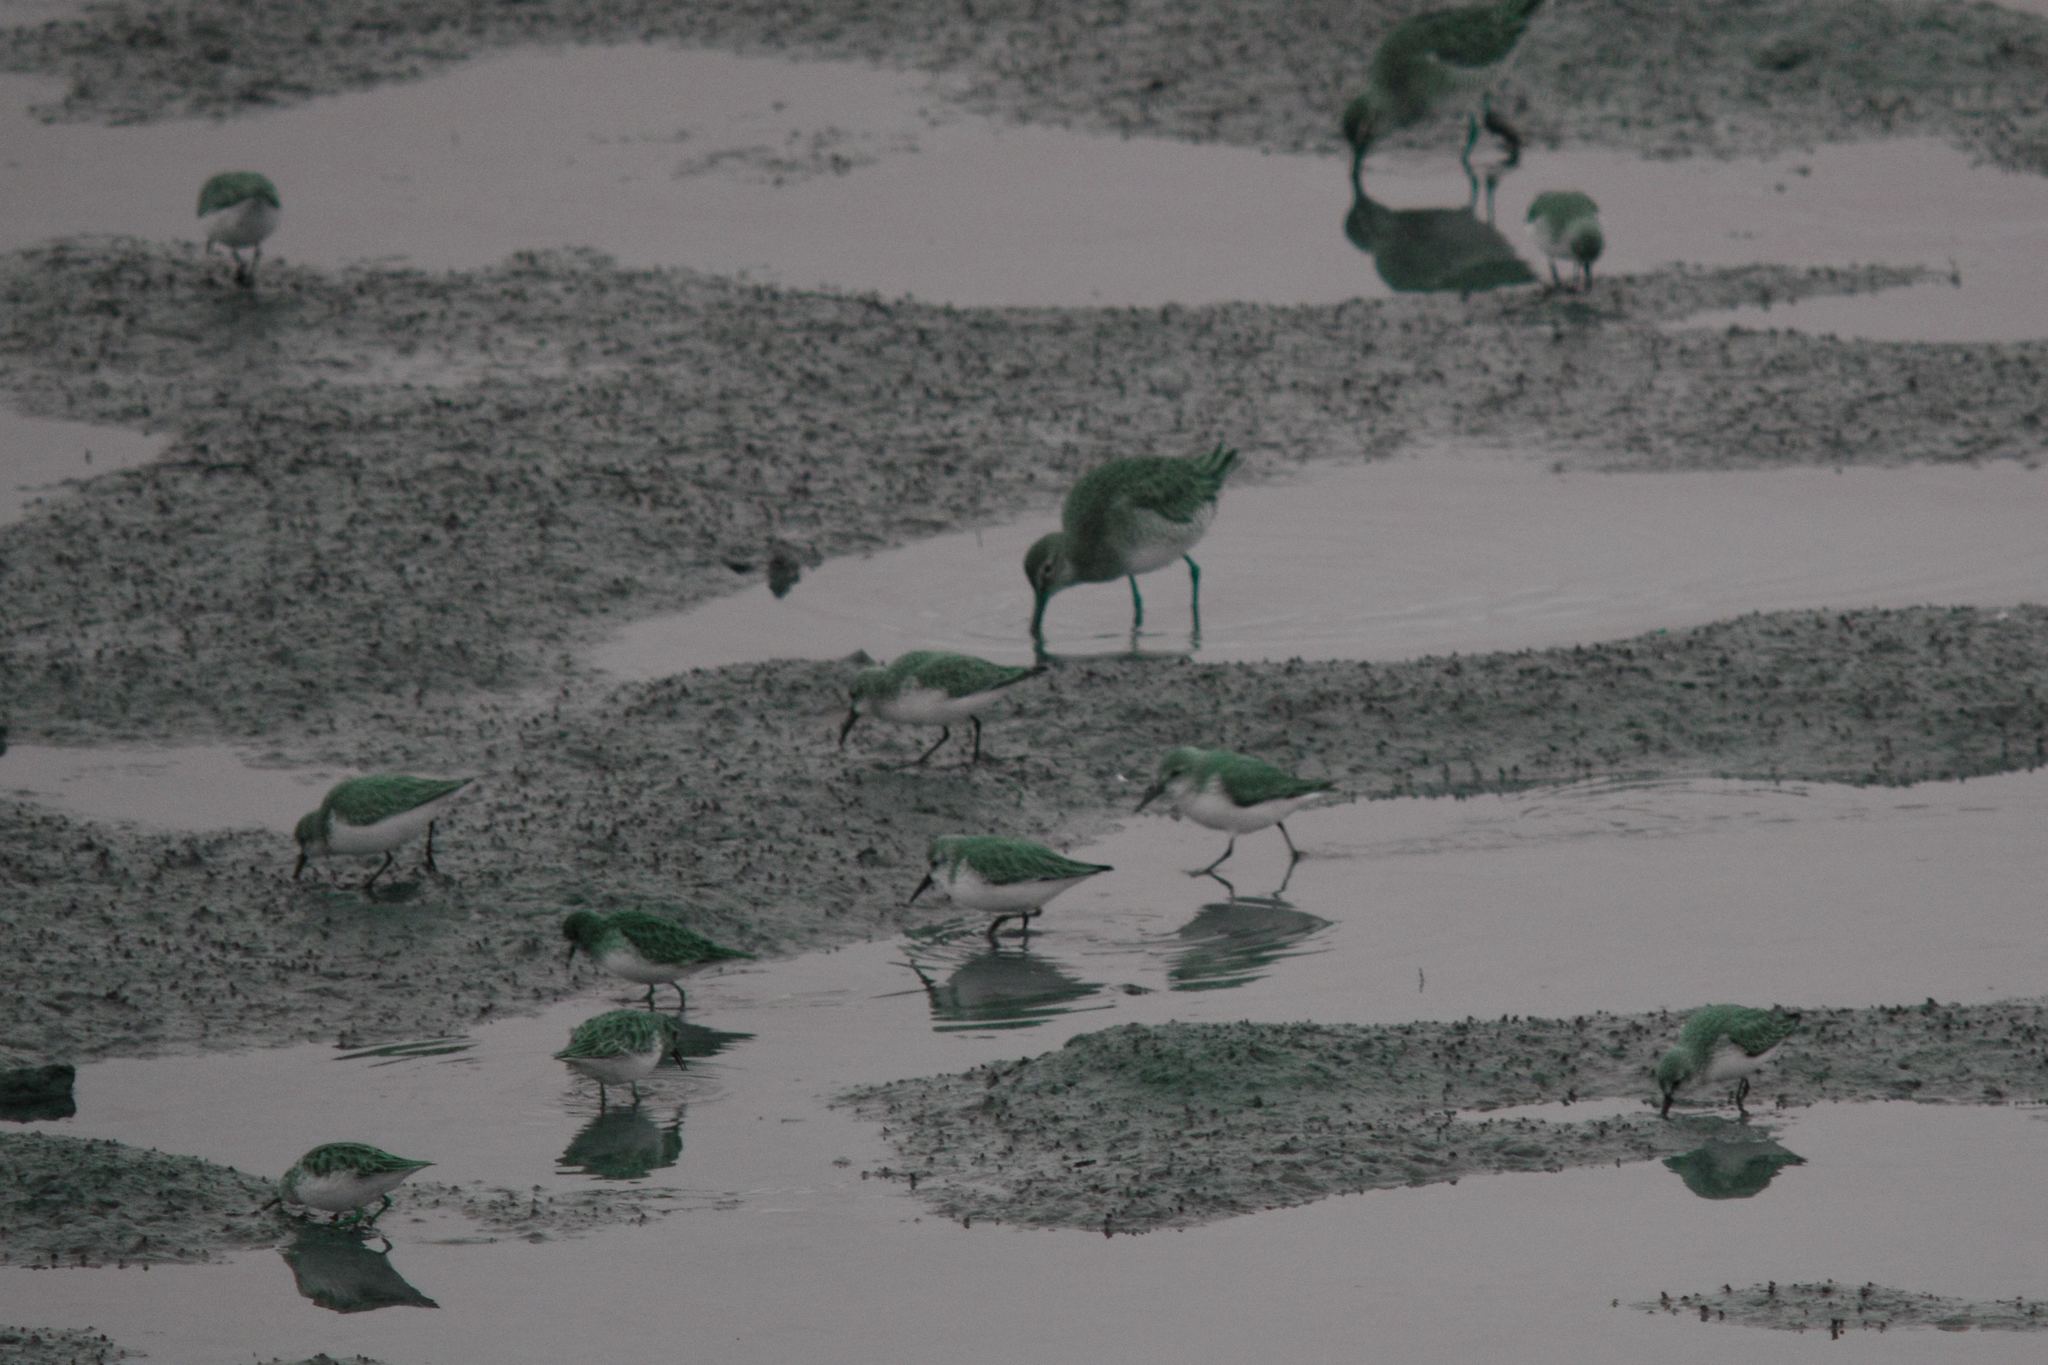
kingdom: Animalia
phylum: Chordata
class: Aves
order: Charadriiformes
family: Scolopacidae
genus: Calidris
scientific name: Calidris mauri
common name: Western sandpiper
